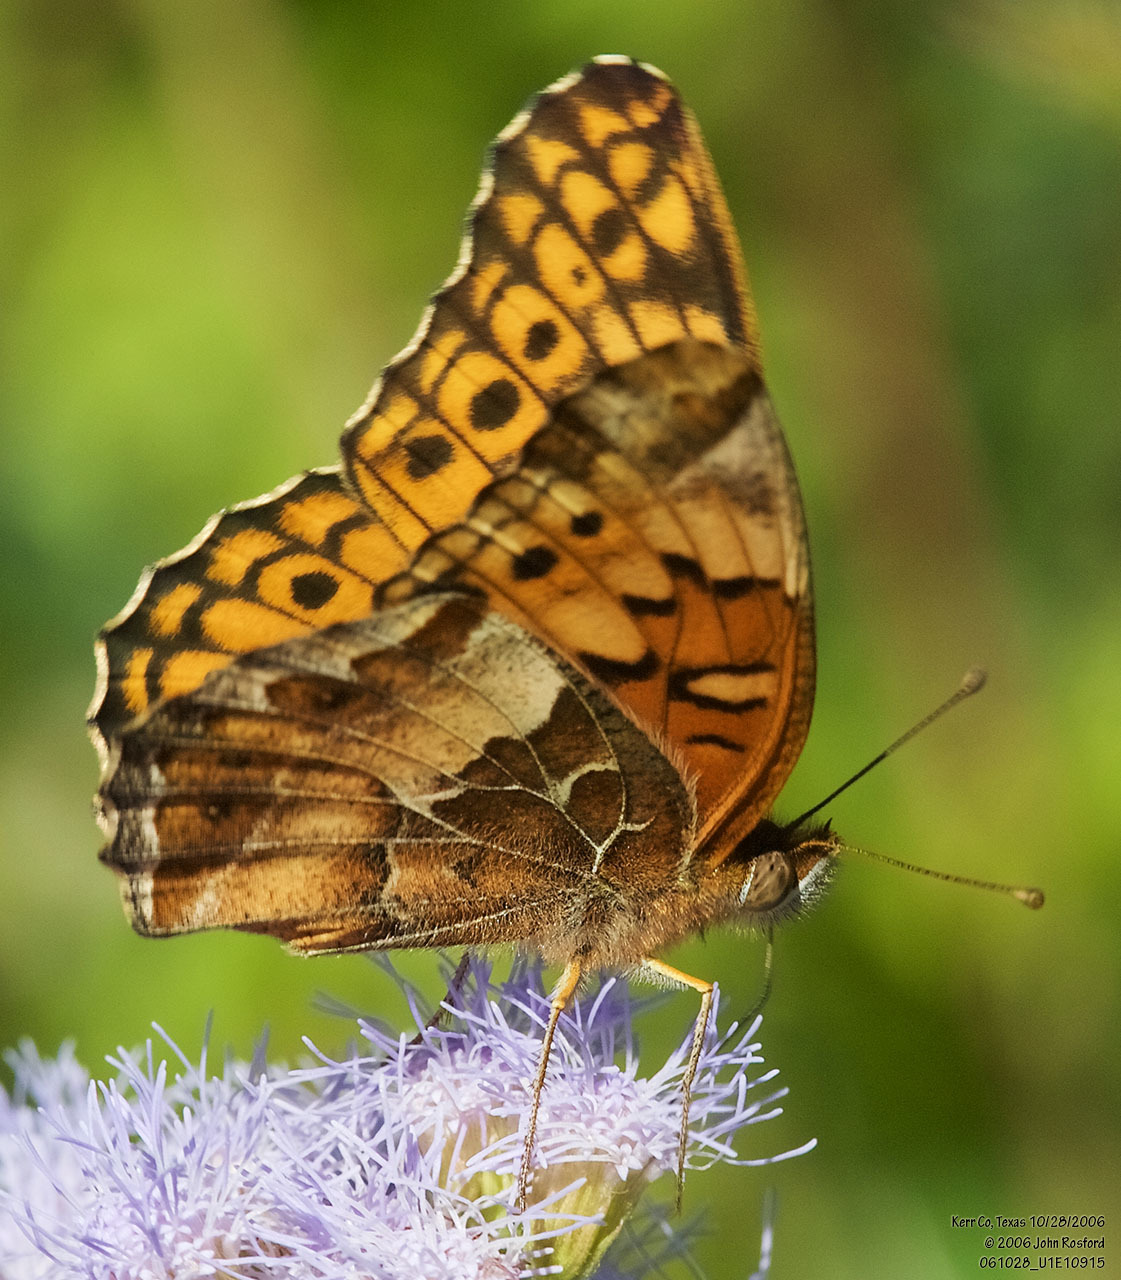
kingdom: Animalia
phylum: Arthropoda
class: Insecta
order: Lepidoptera
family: Nymphalidae
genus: Euptoieta
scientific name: Euptoieta claudia
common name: Variegated fritillary
